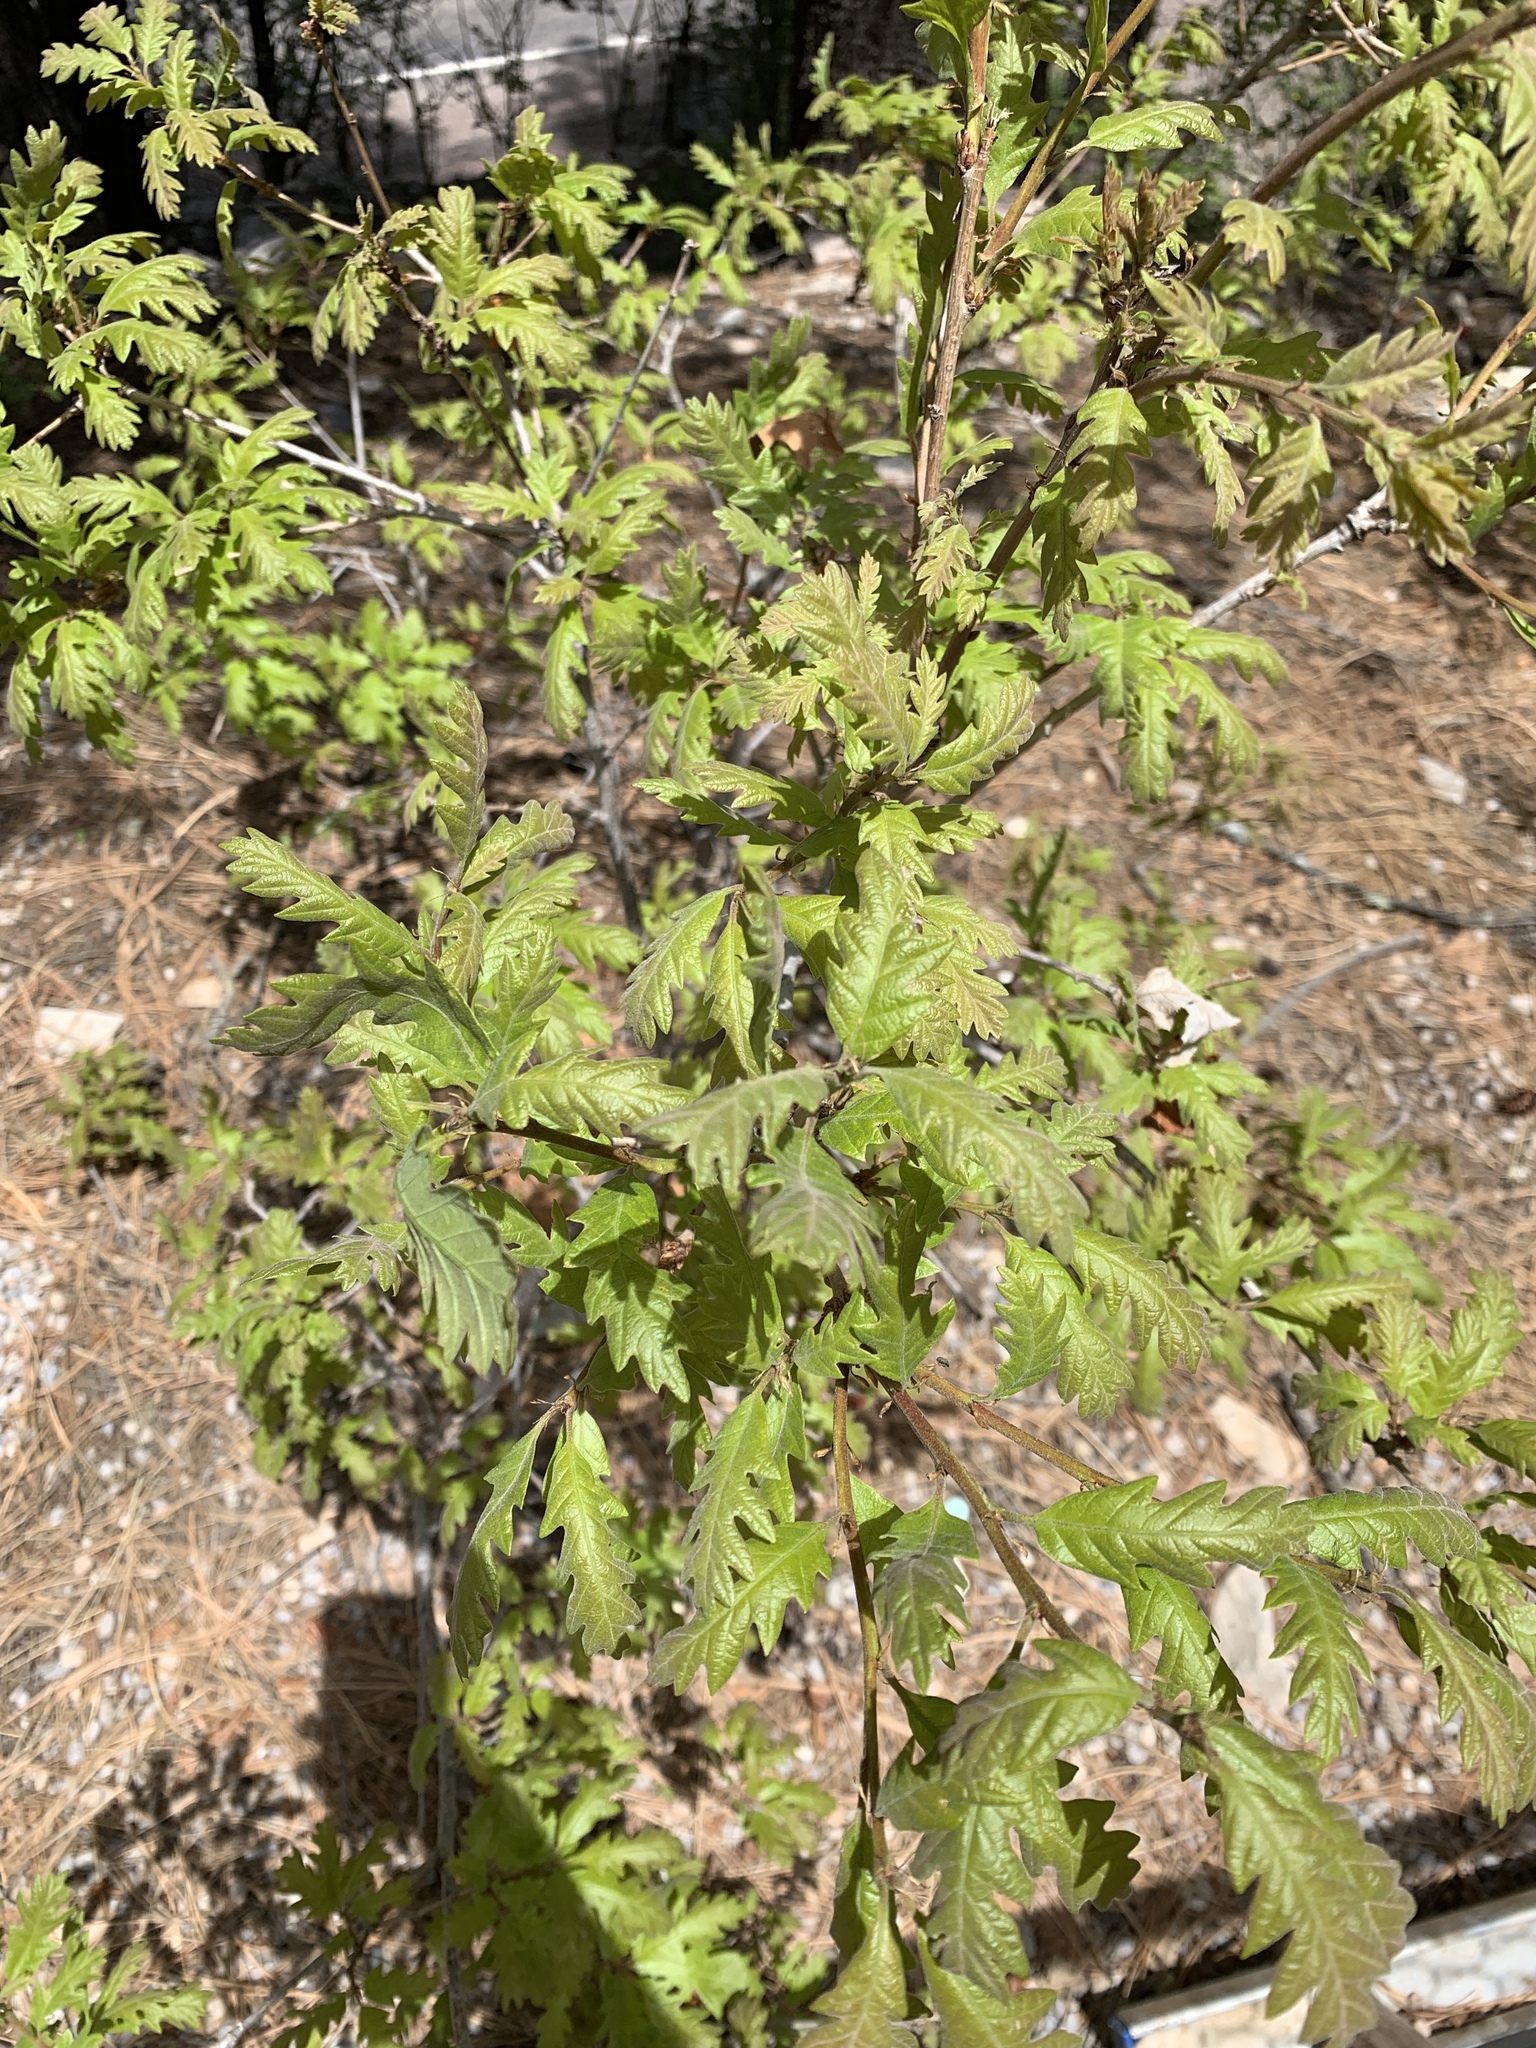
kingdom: Plantae
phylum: Tracheophyta
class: Magnoliopsida
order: Fagales
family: Fagaceae
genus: Quercus
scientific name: Quercus gambelii
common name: Gambel oak
